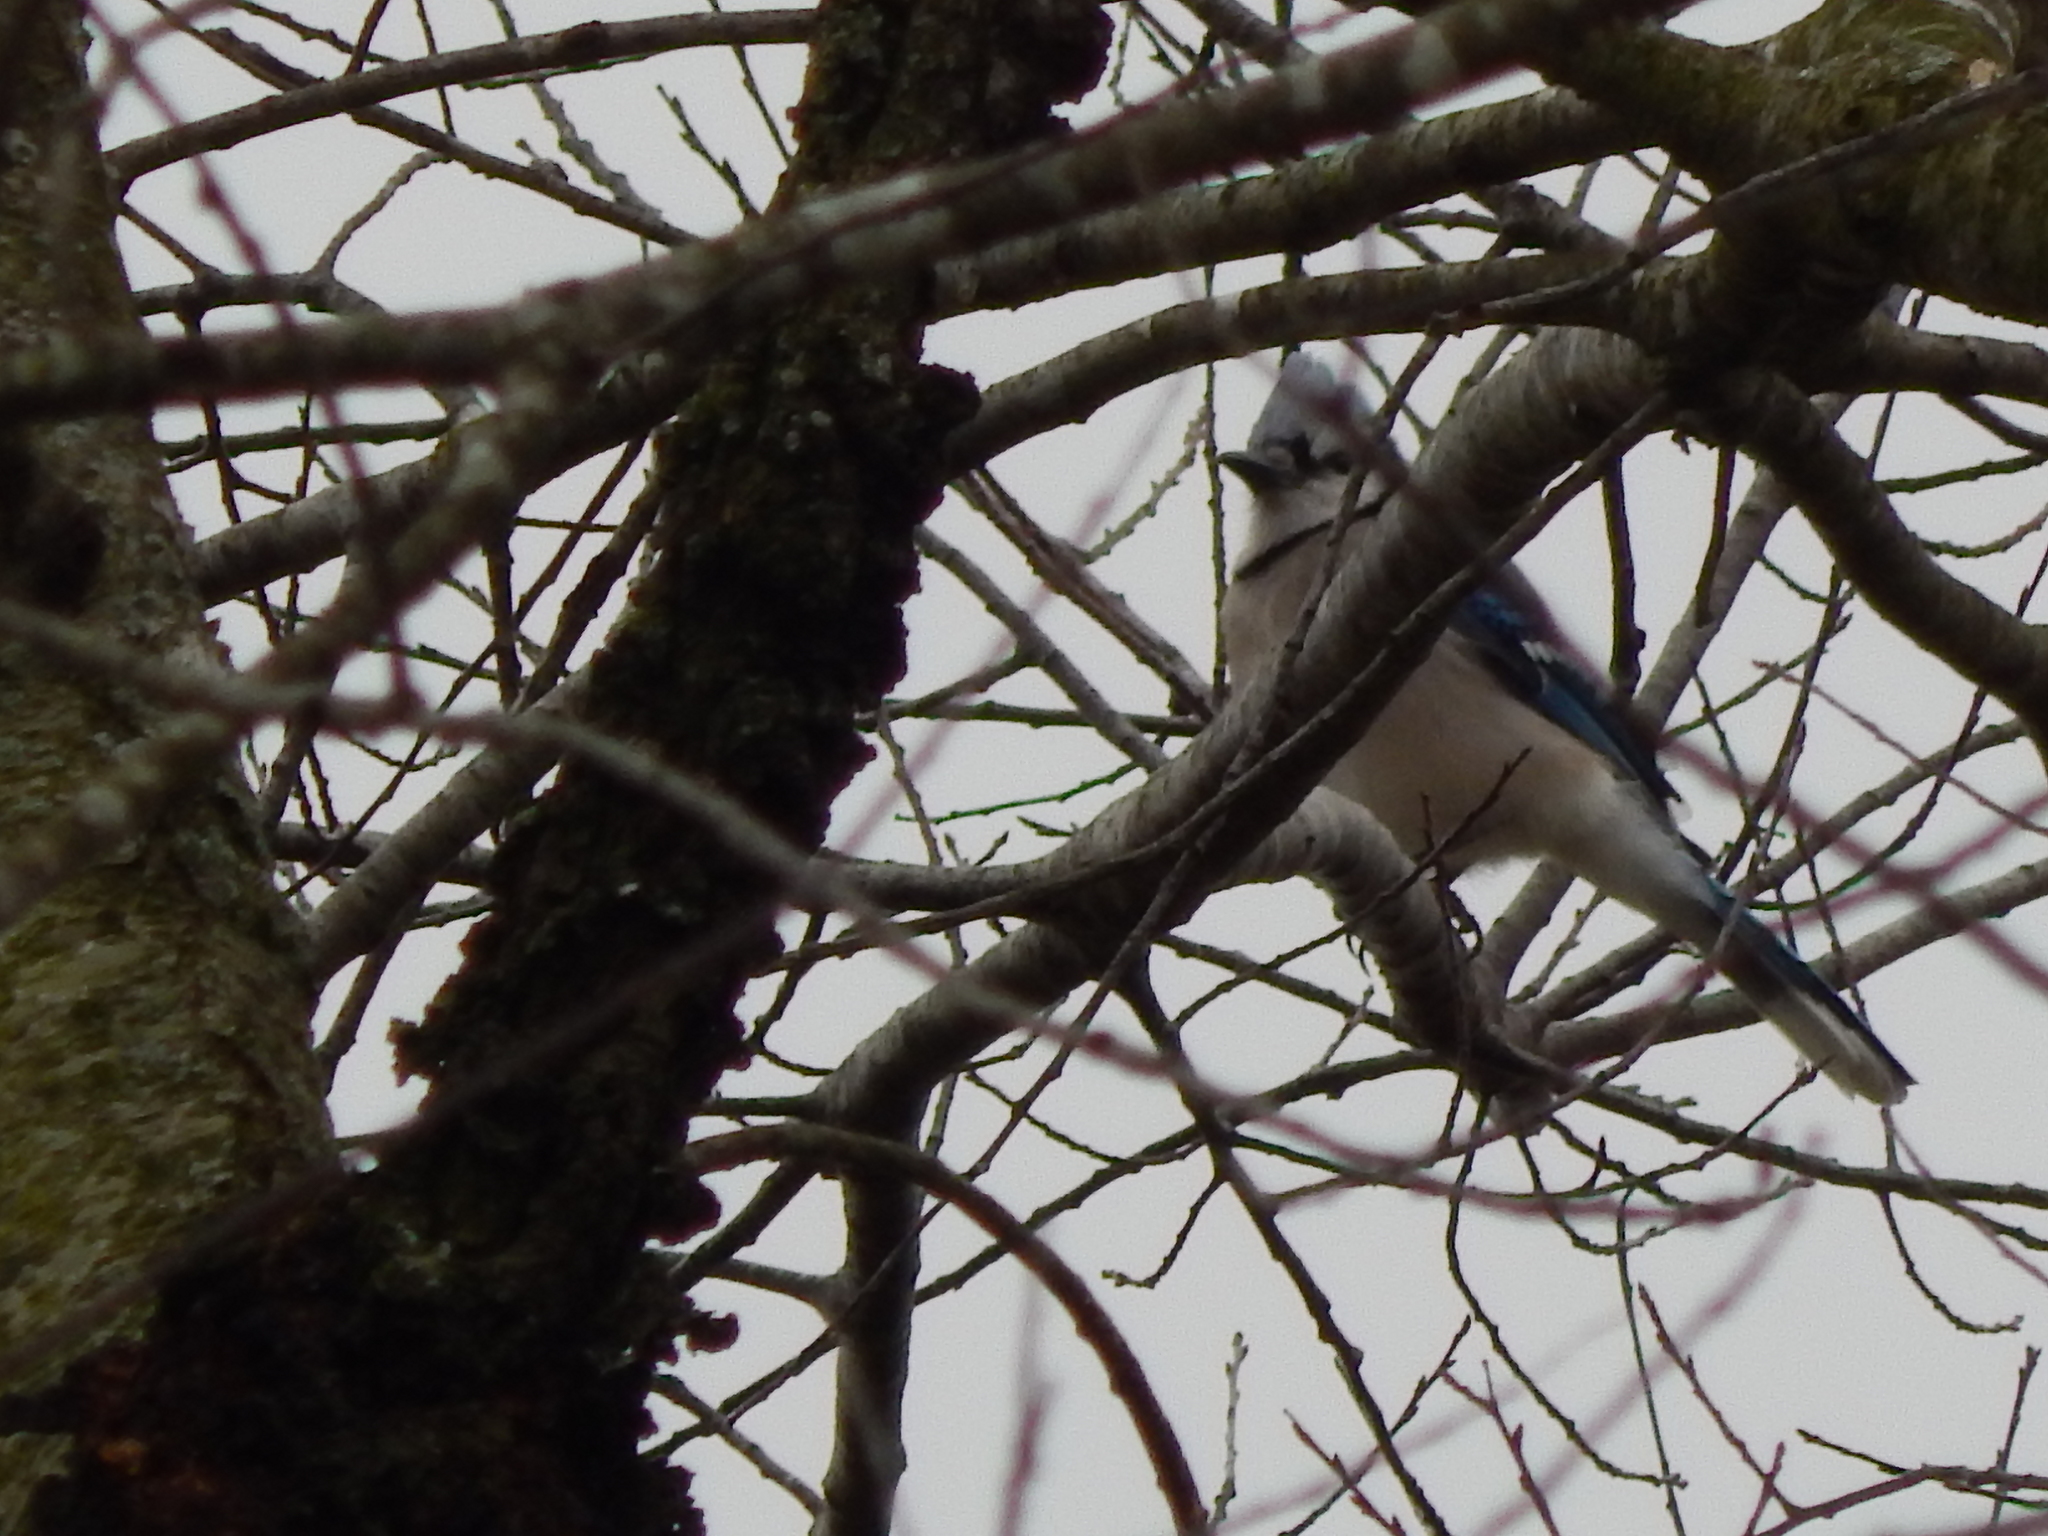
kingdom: Animalia
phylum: Chordata
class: Aves
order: Passeriformes
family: Corvidae
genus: Cyanocitta
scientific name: Cyanocitta cristata
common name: Blue jay
